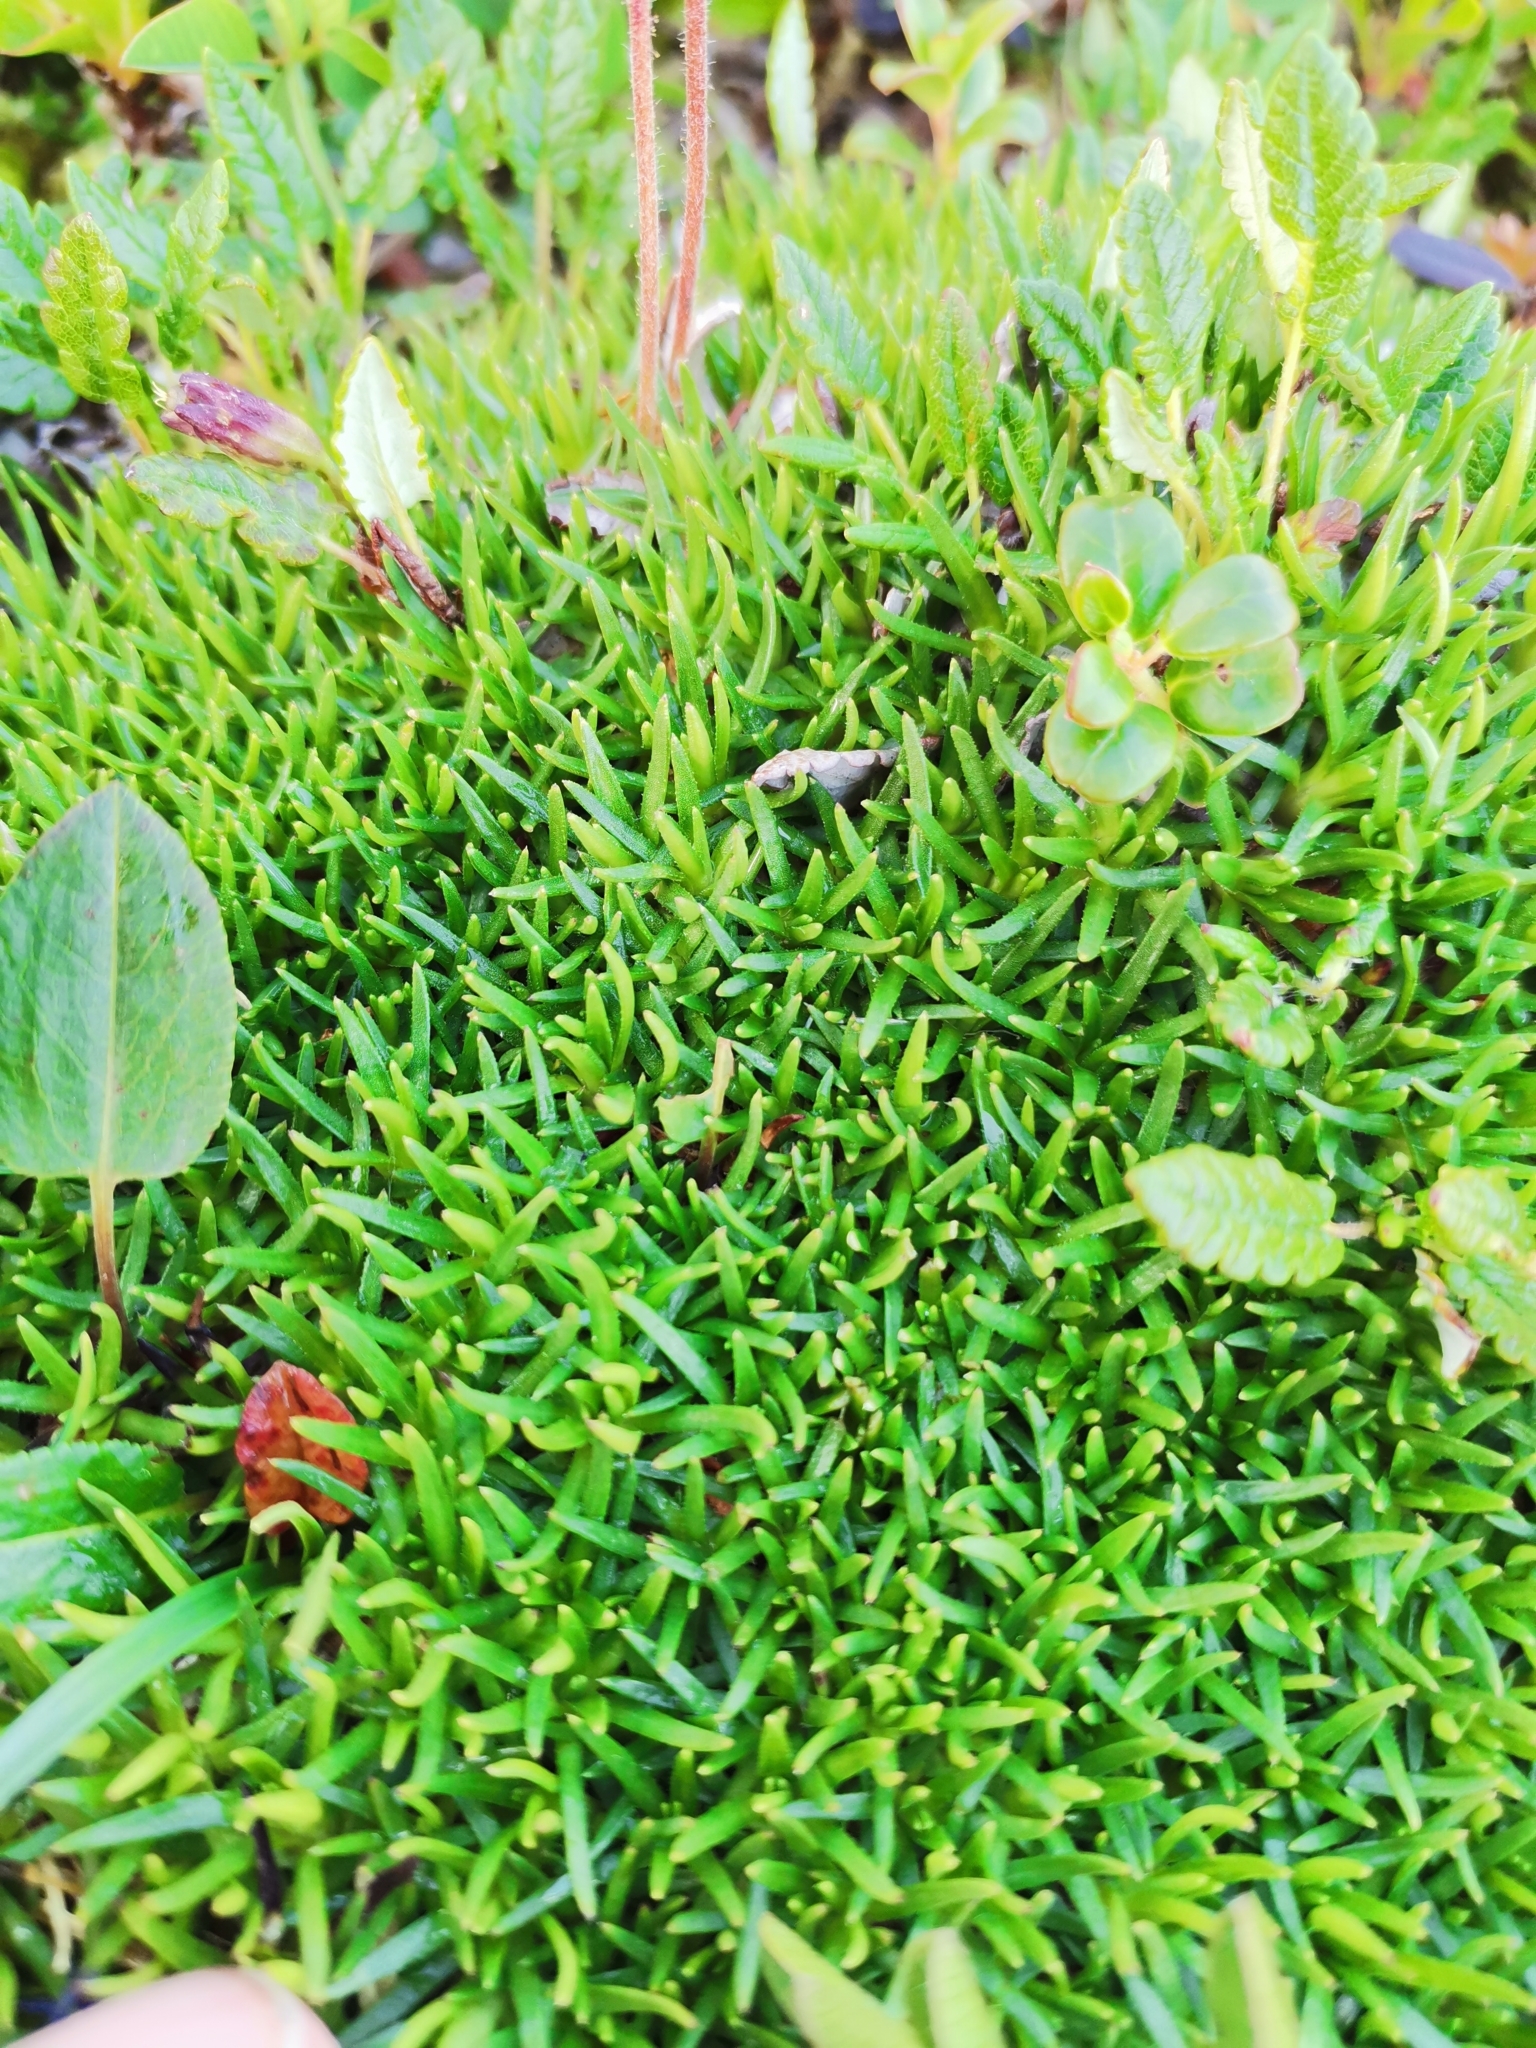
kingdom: Plantae
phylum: Tracheophyta
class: Magnoliopsida
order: Caryophyllales
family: Caryophyllaceae
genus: Silene
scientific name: Silene acaulis
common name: Moss campion
